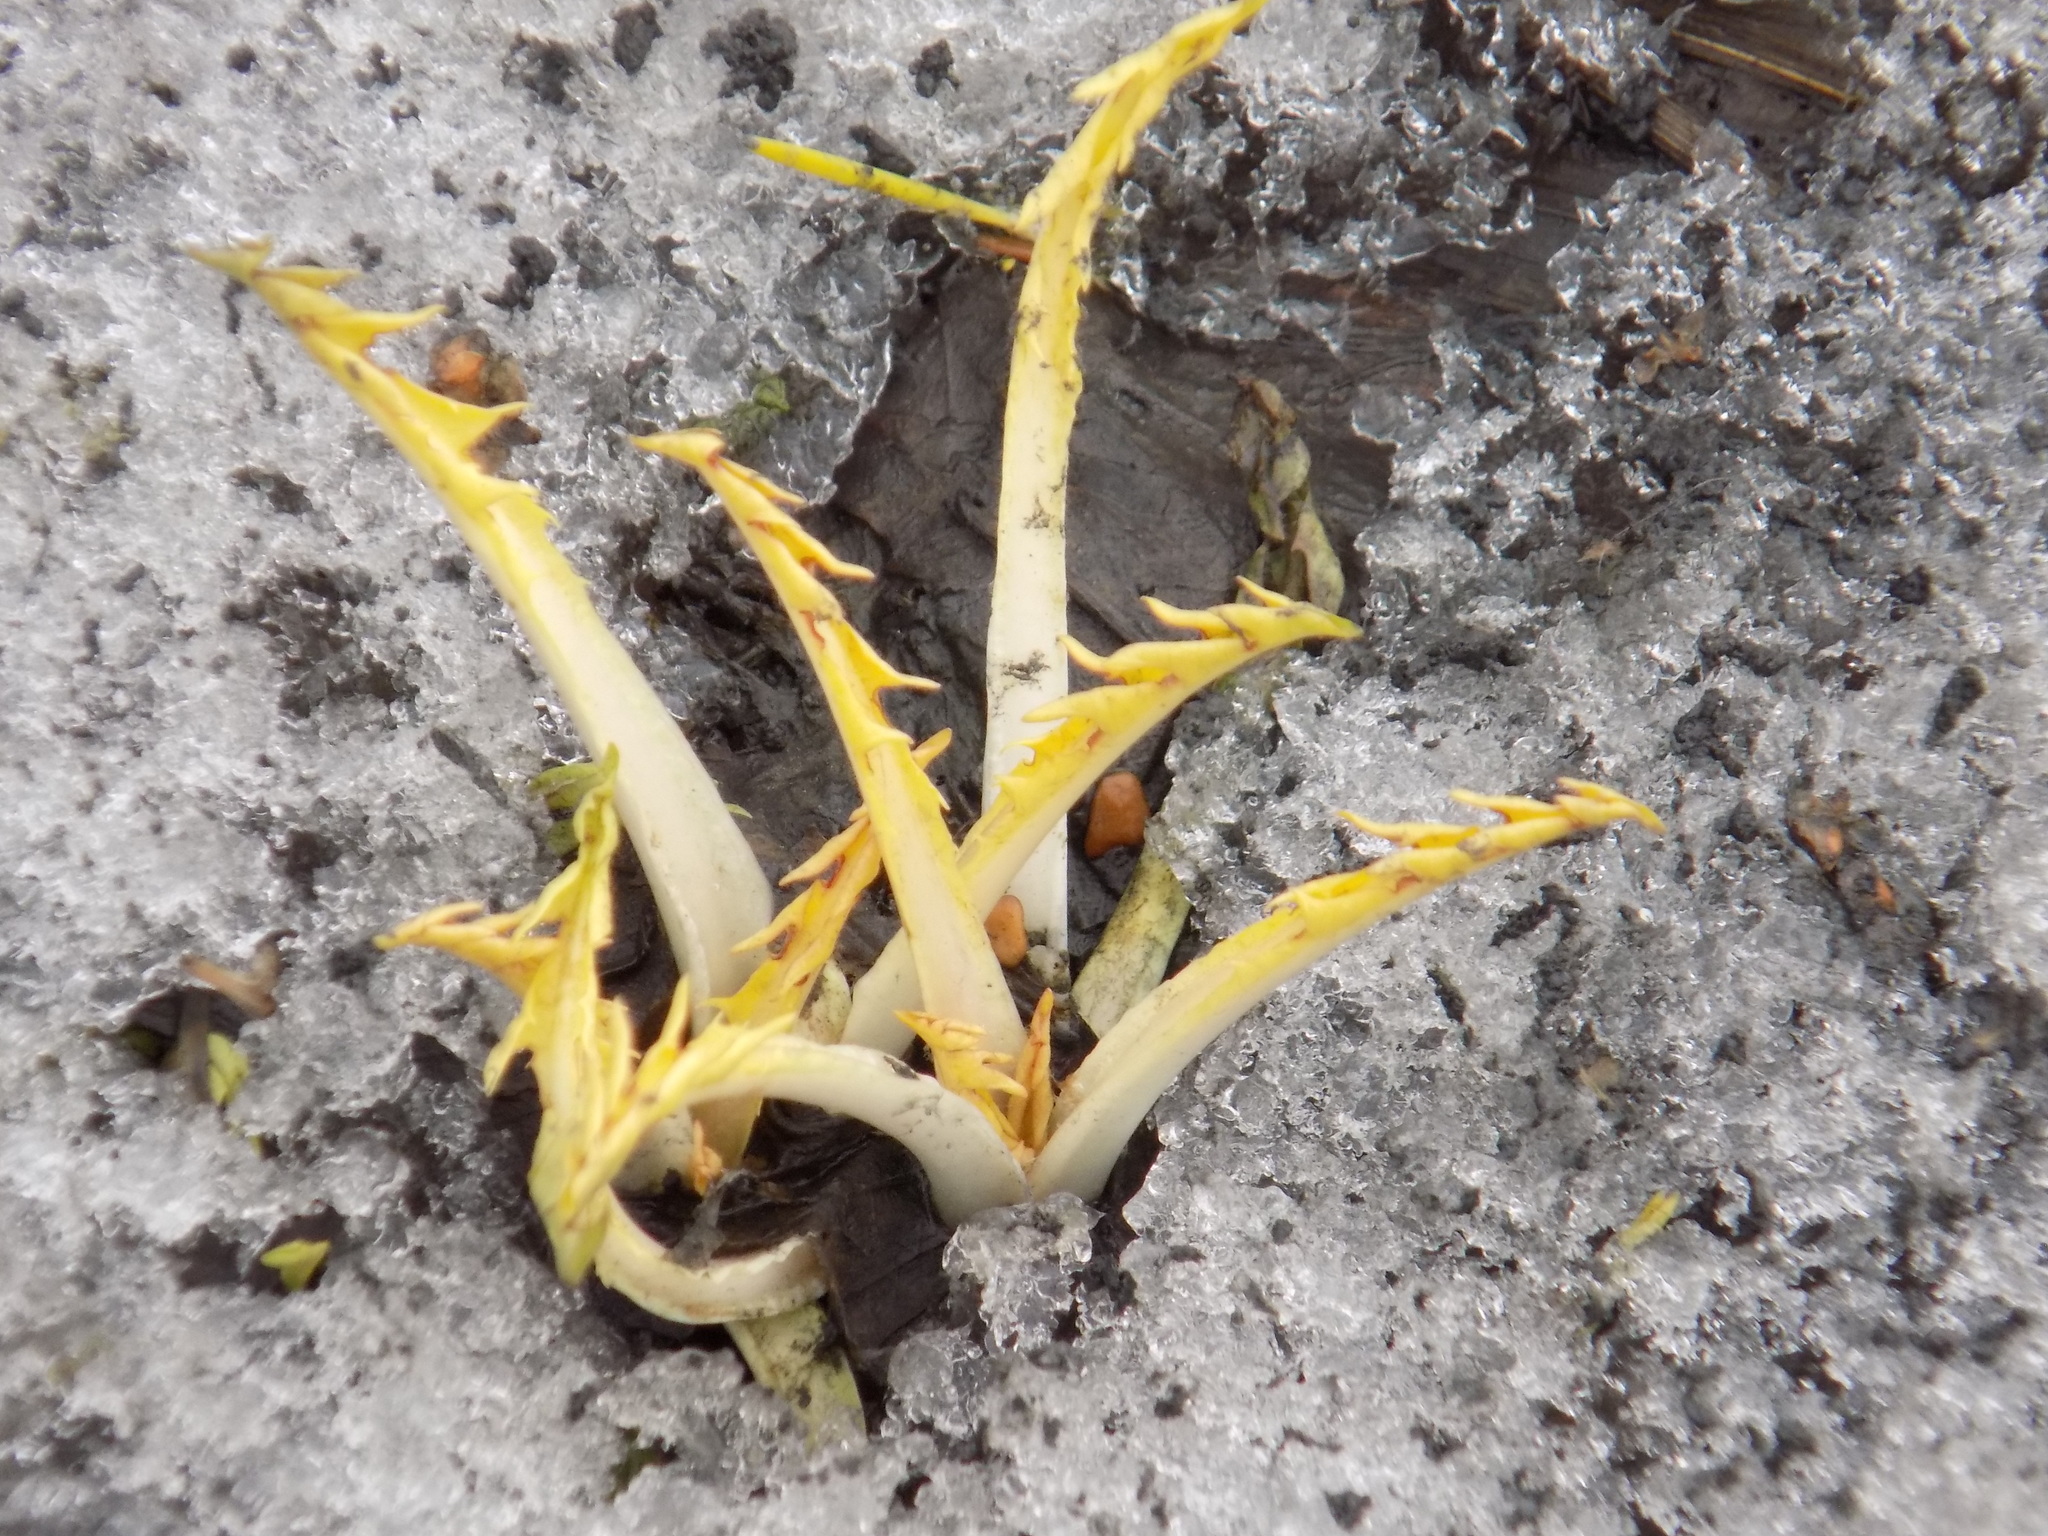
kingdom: Plantae
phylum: Tracheophyta
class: Magnoliopsida
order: Asterales
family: Asteraceae
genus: Taraxacum
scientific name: Taraxacum
